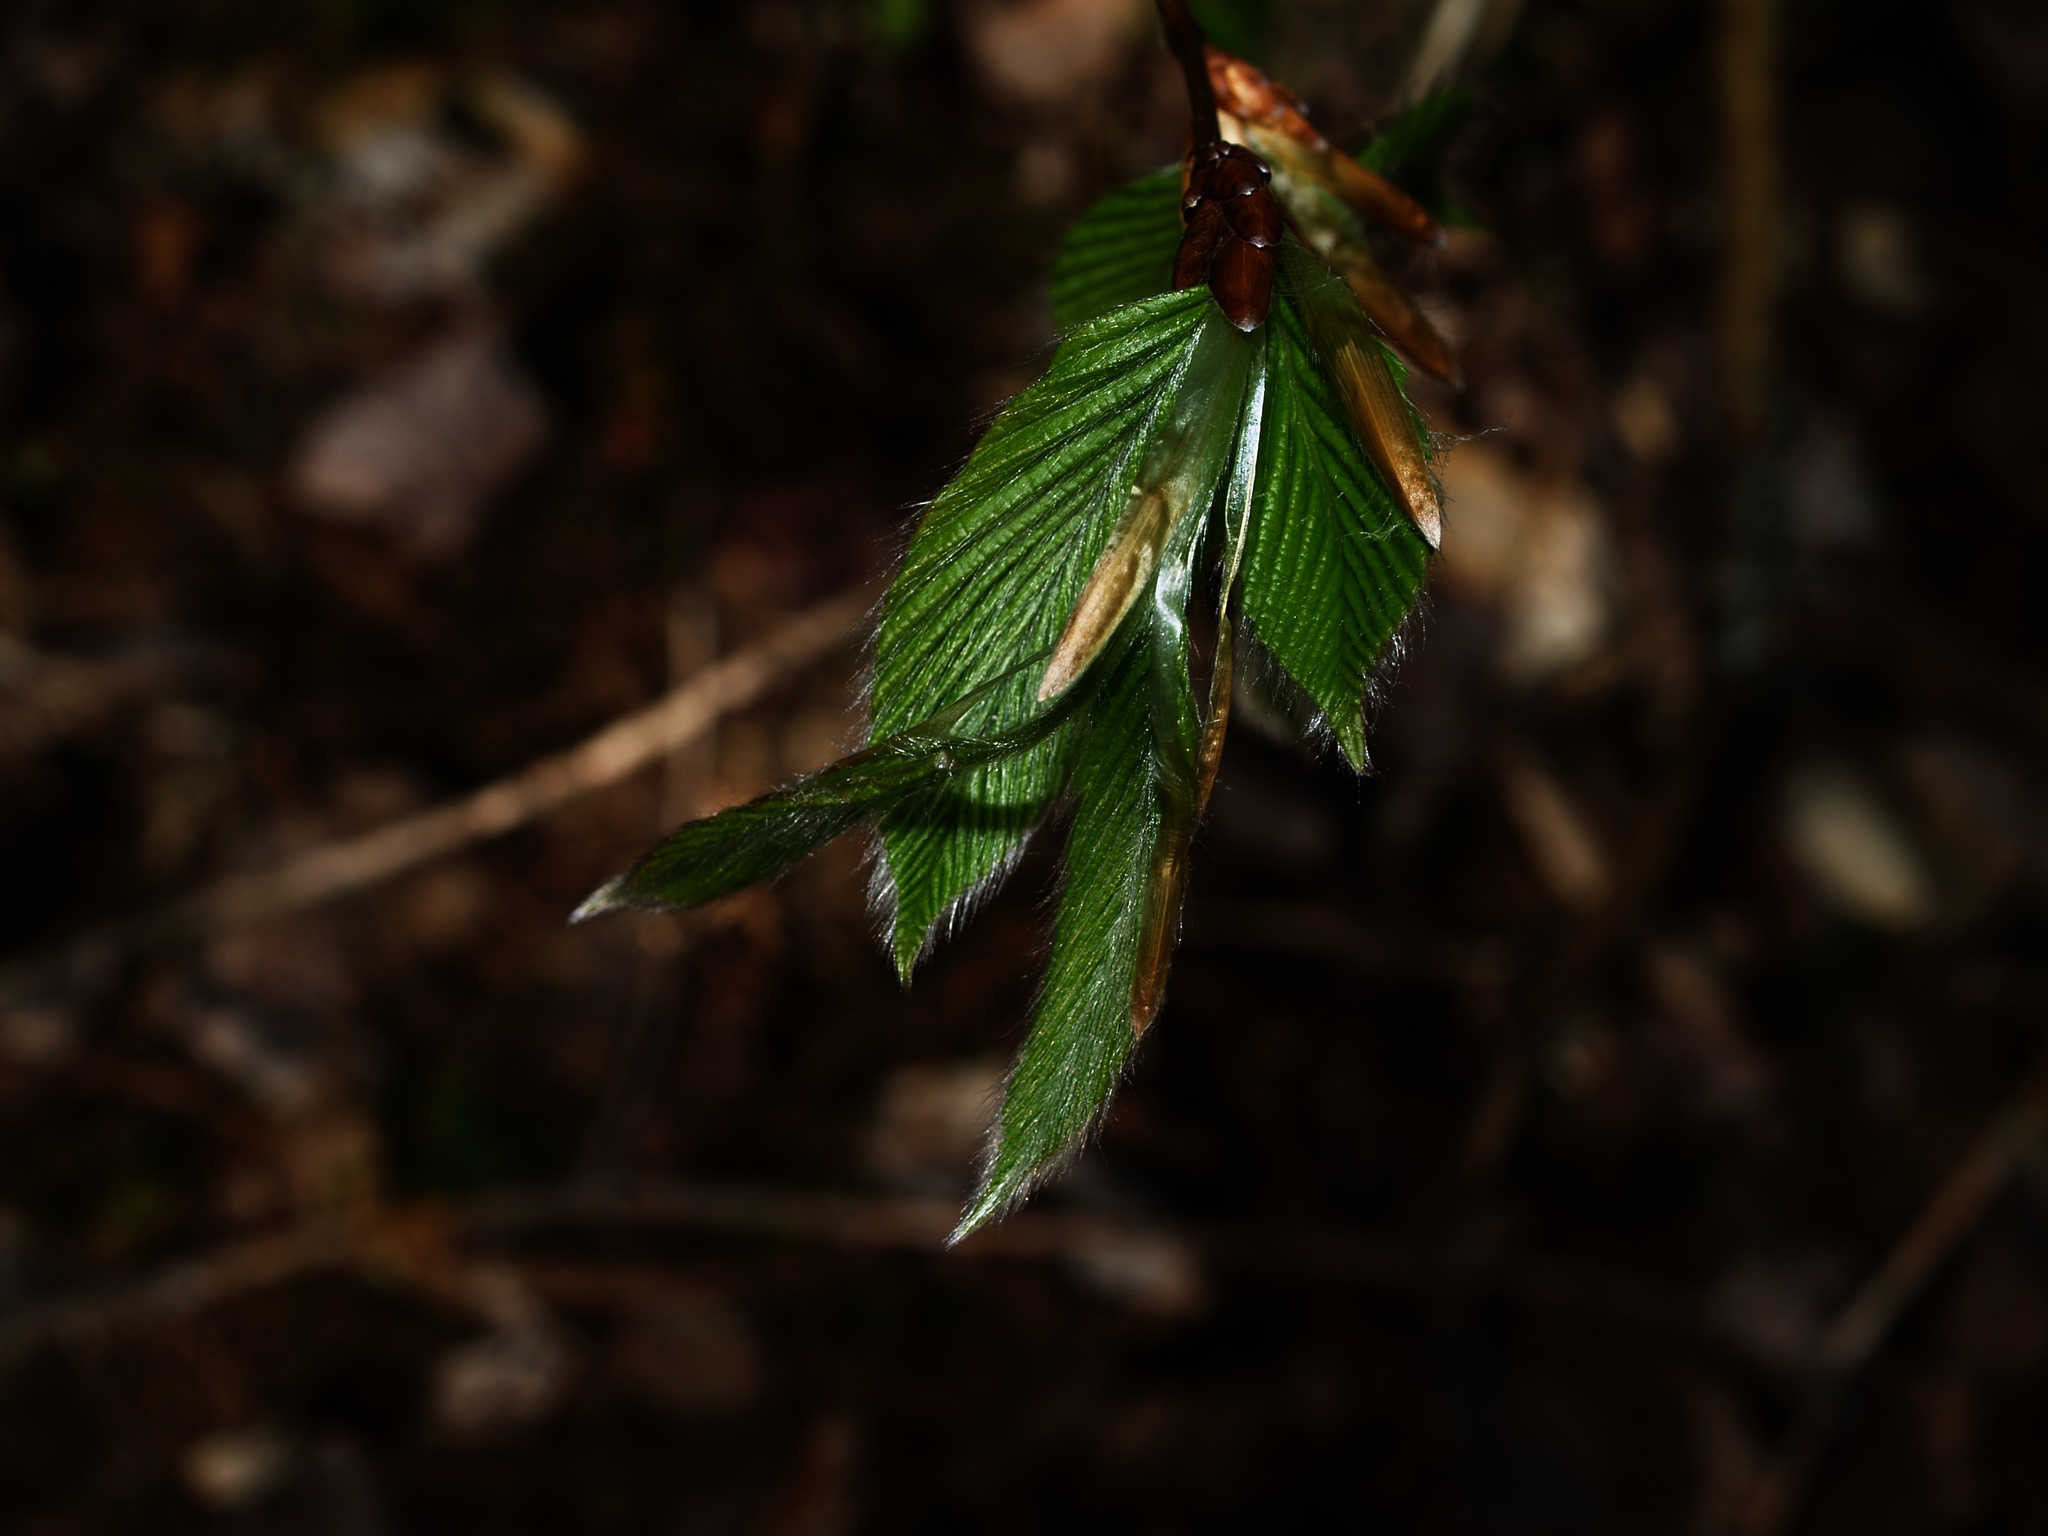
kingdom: Plantae
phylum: Tracheophyta
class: Magnoliopsida
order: Fagales
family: Fagaceae
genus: Fagus
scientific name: Fagus grandifolia
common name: American beech
